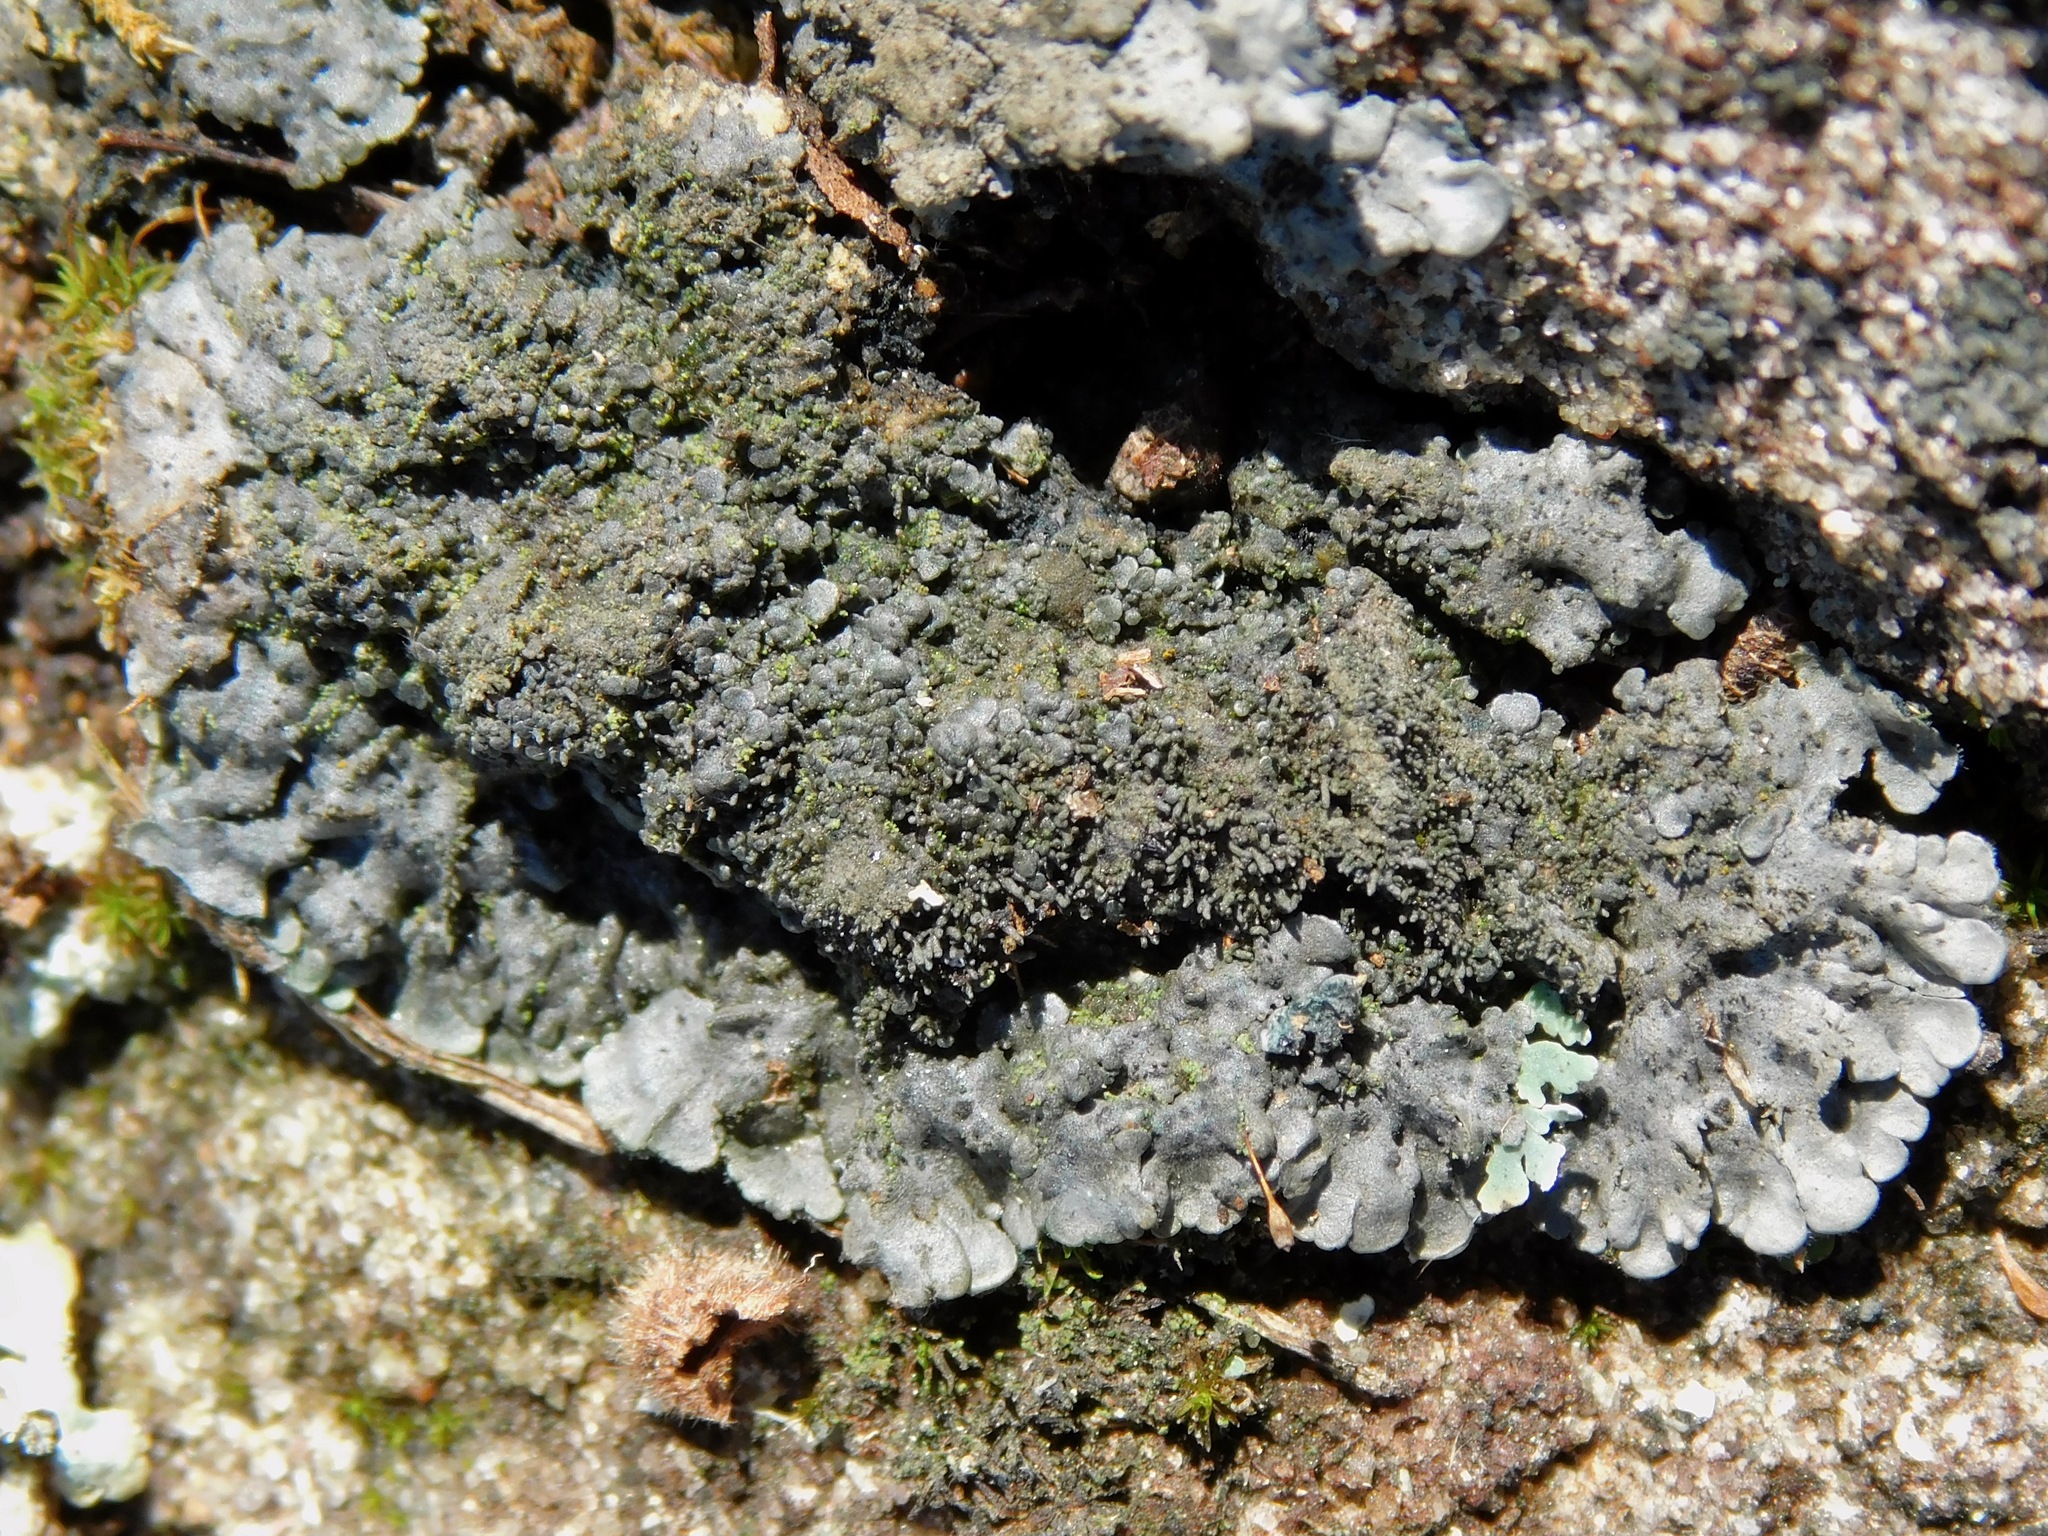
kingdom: Fungi
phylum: Ascomycota
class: Lecanoromycetes
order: Peltigerales
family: Coccocarpiaceae
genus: Coccocarpia
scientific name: Coccocarpia palmicola
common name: Salted shell lichen
